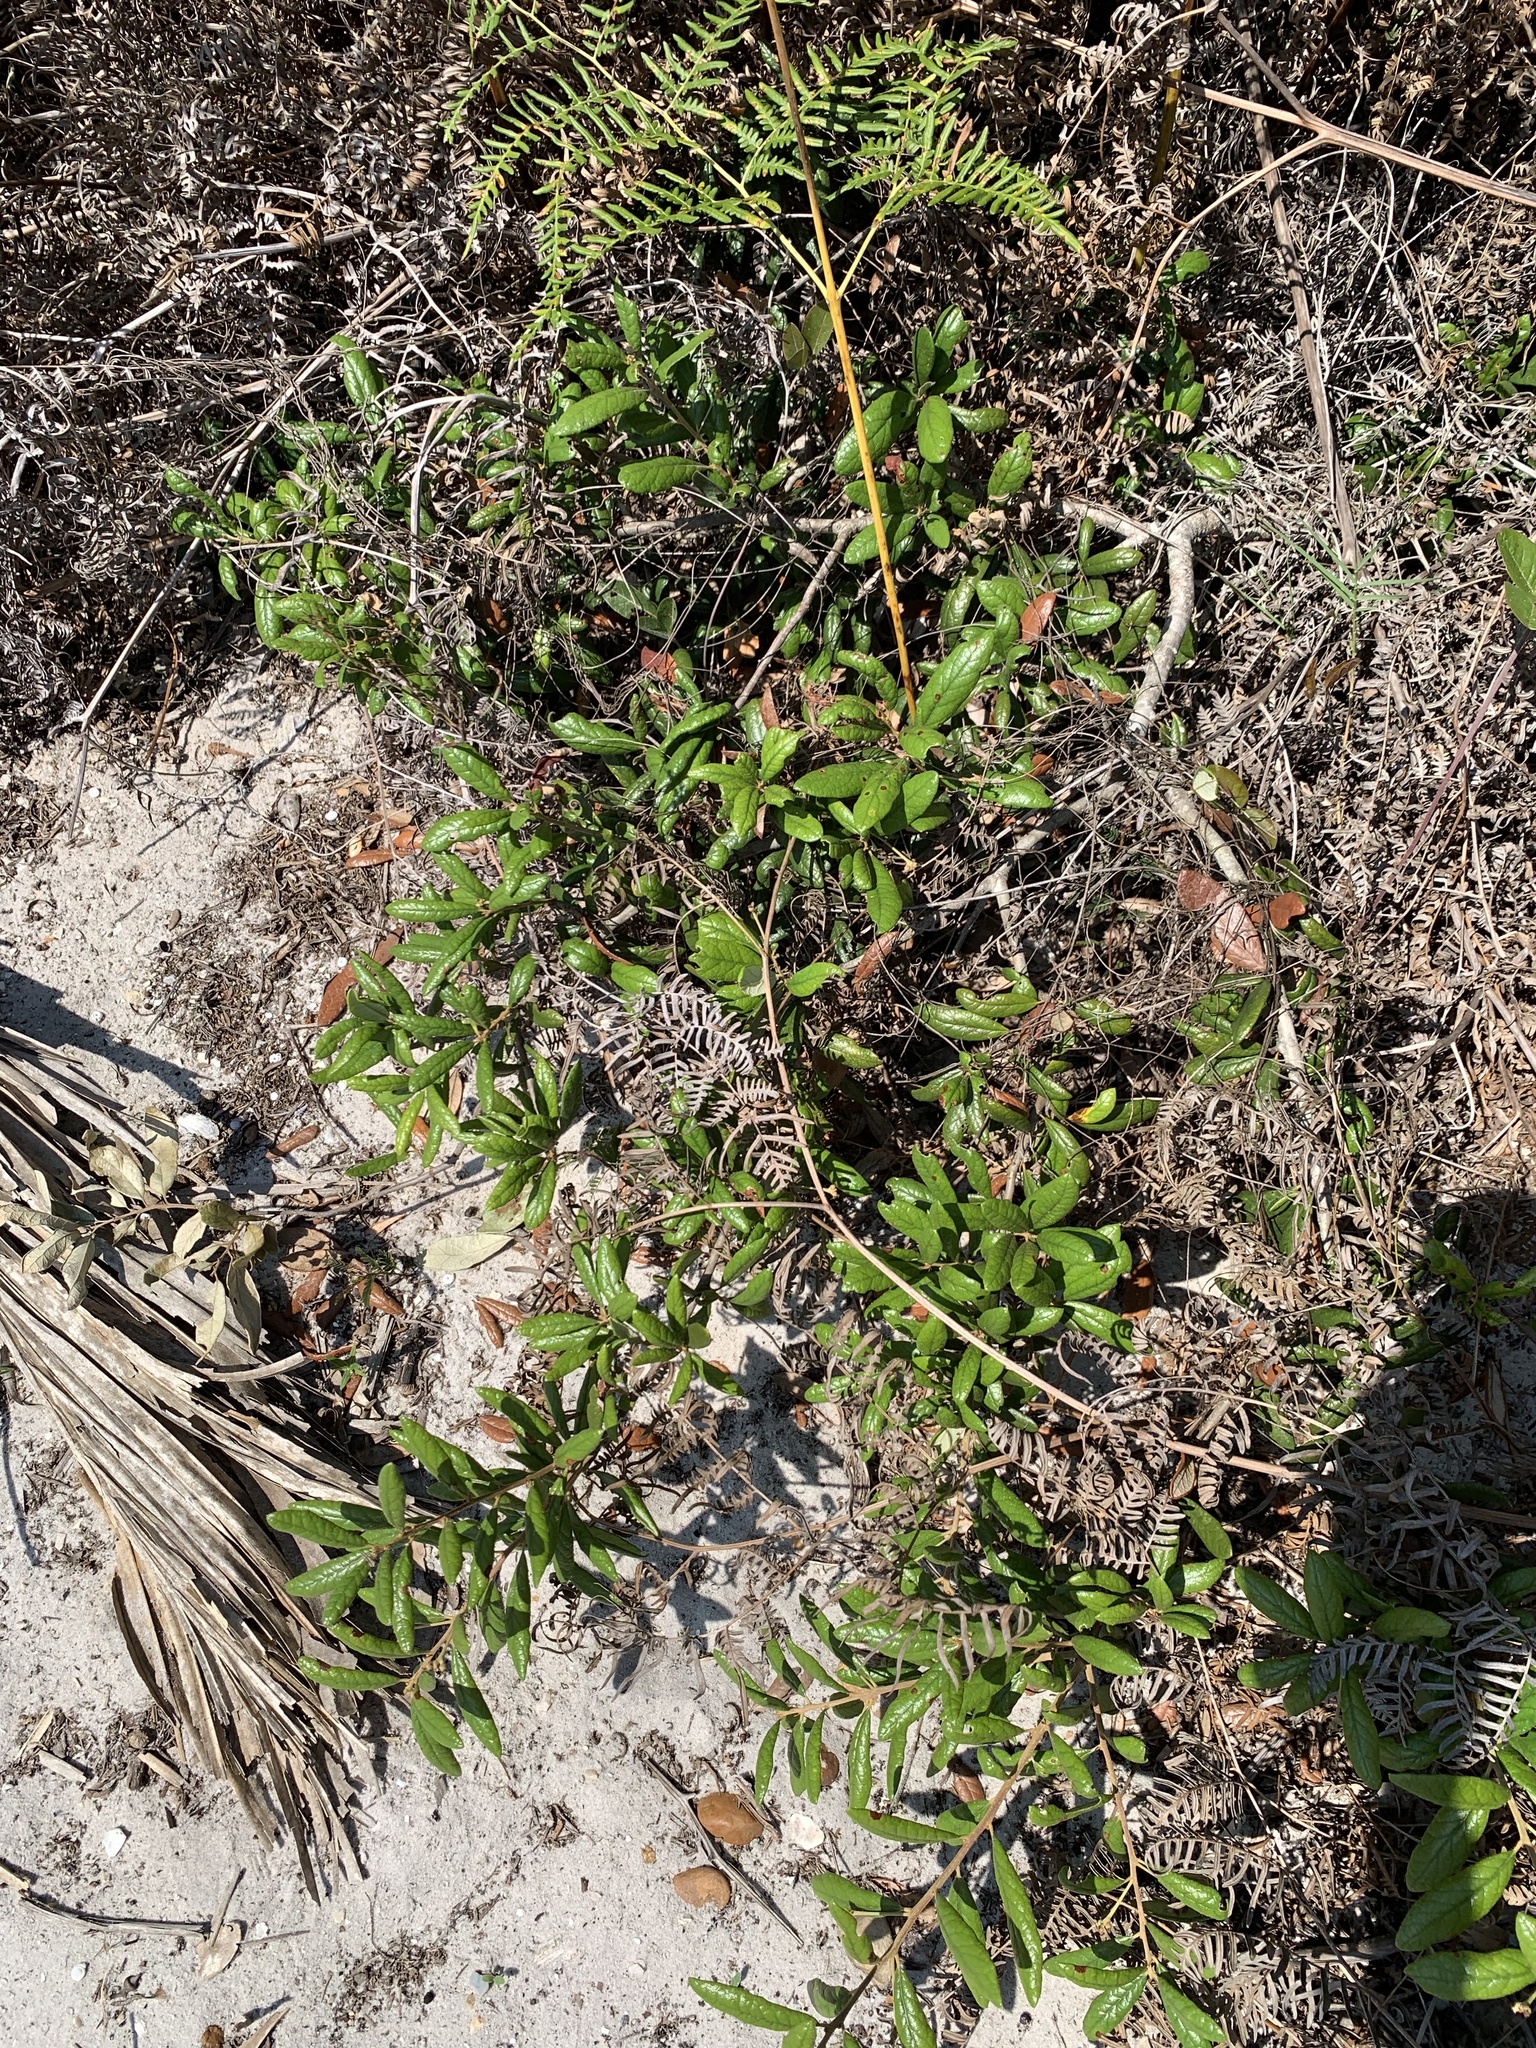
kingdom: Plantae
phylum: Tracheophyta
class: Magnoliopsida
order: Fagales
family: Fagaceae
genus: Quercus
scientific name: Quercus geminata
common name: Sand live oak
